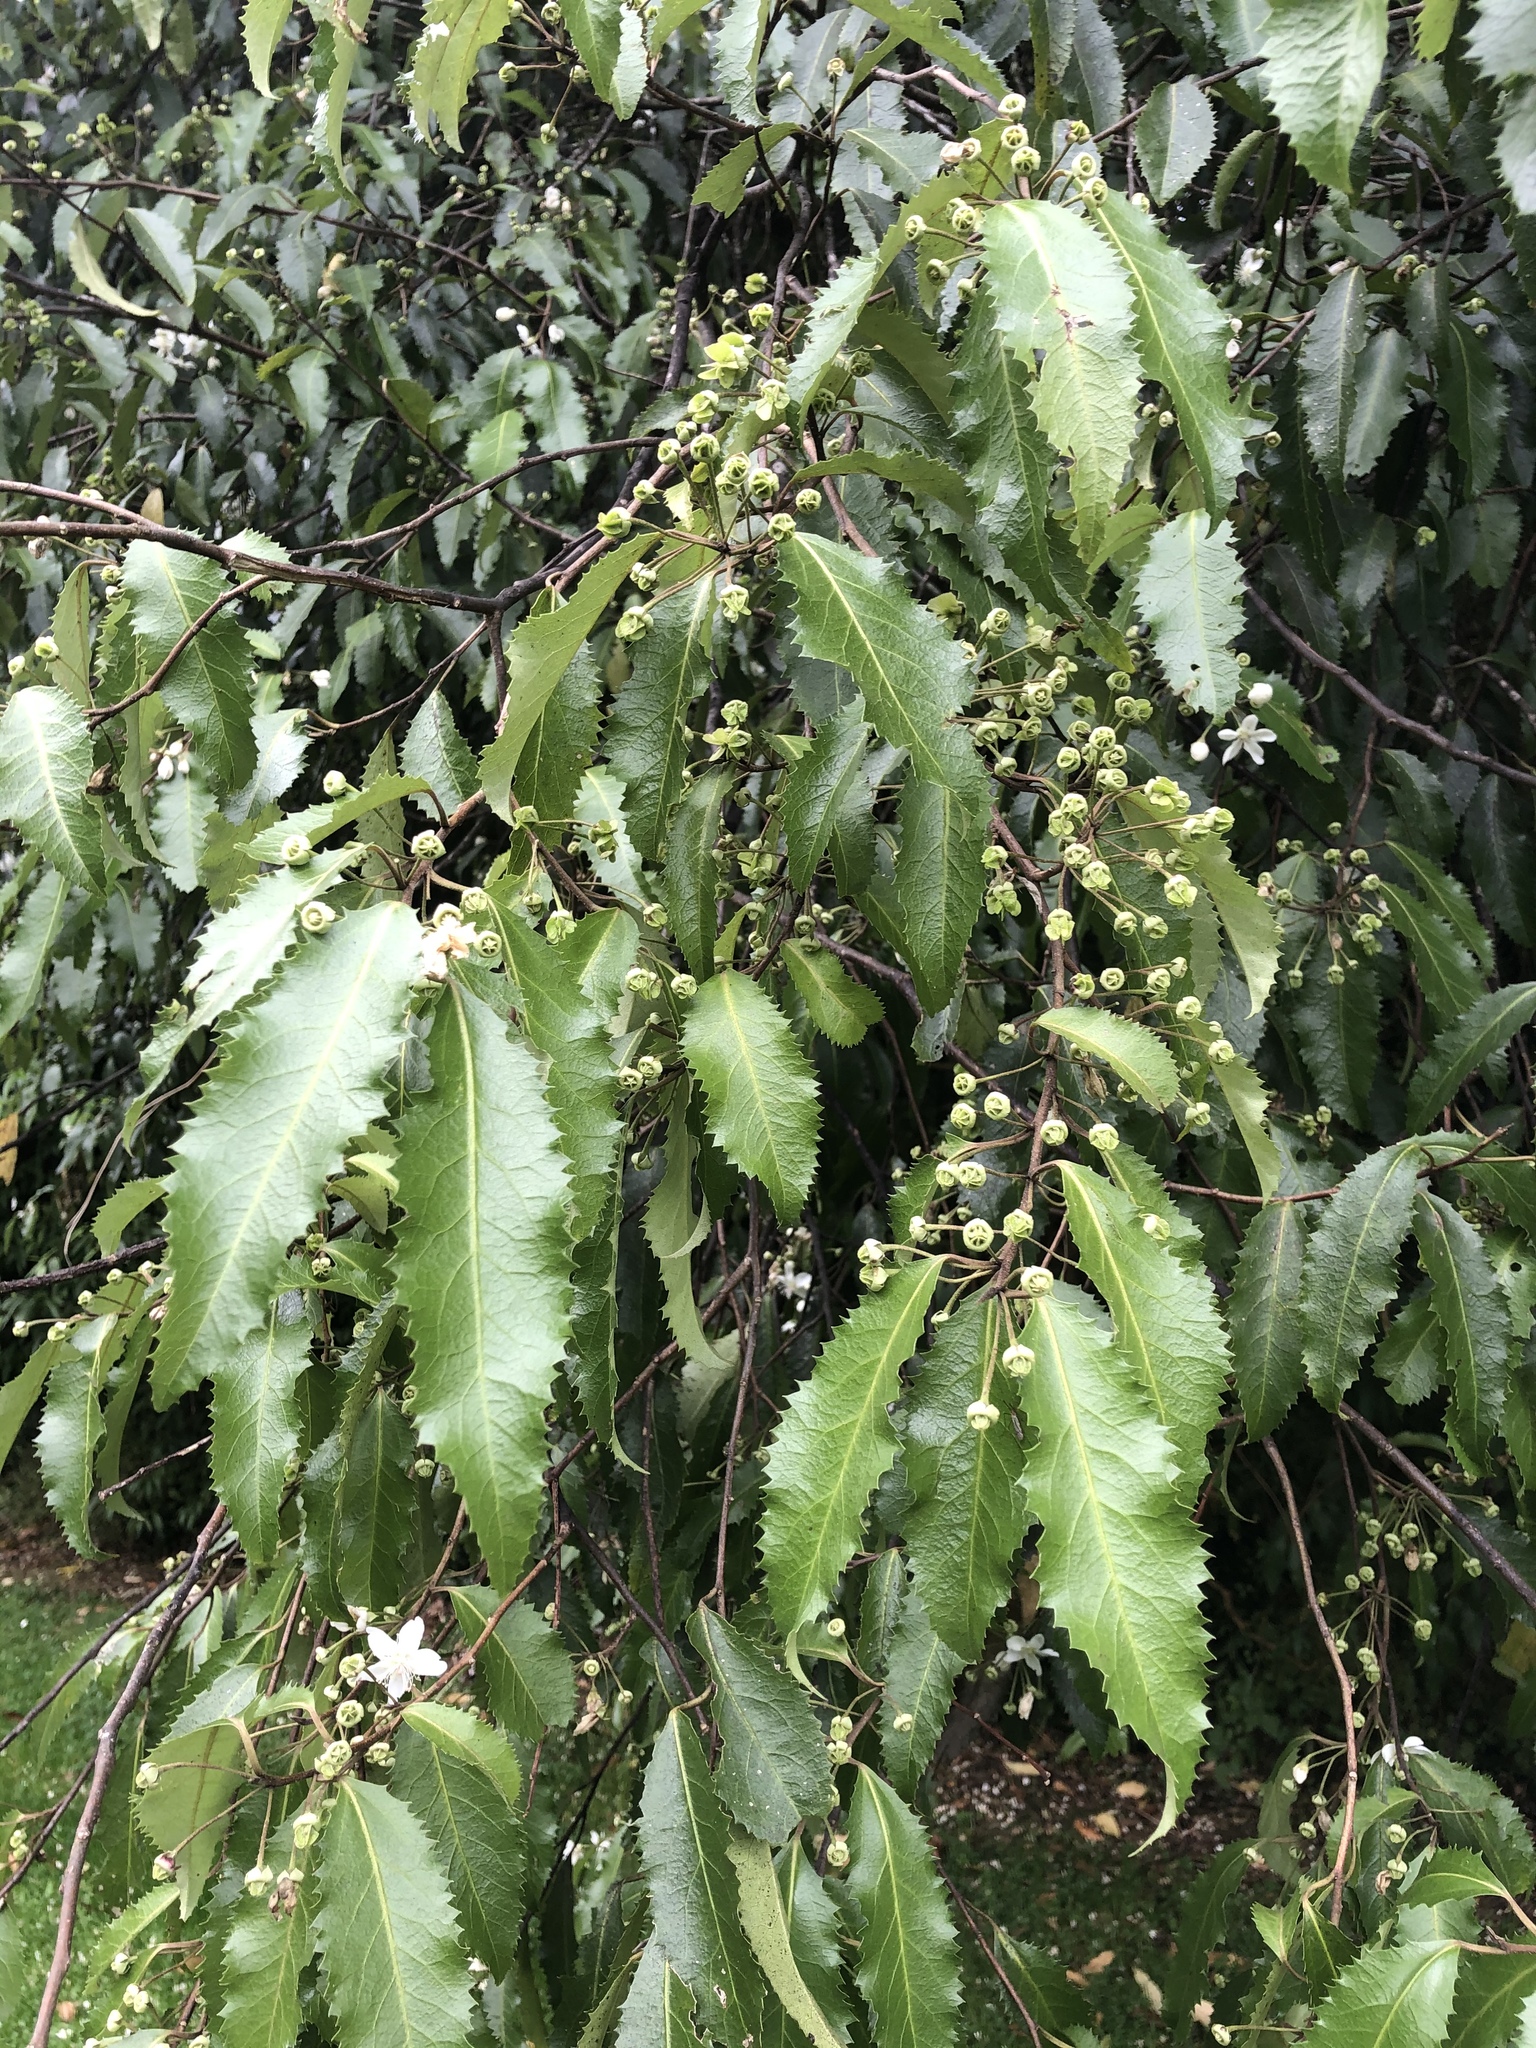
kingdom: Plantae
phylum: Tracheophyta
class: Magnoliopsida
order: Malvales
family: Malvaceae
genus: Hoheria
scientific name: Hoheria sexstylosa
